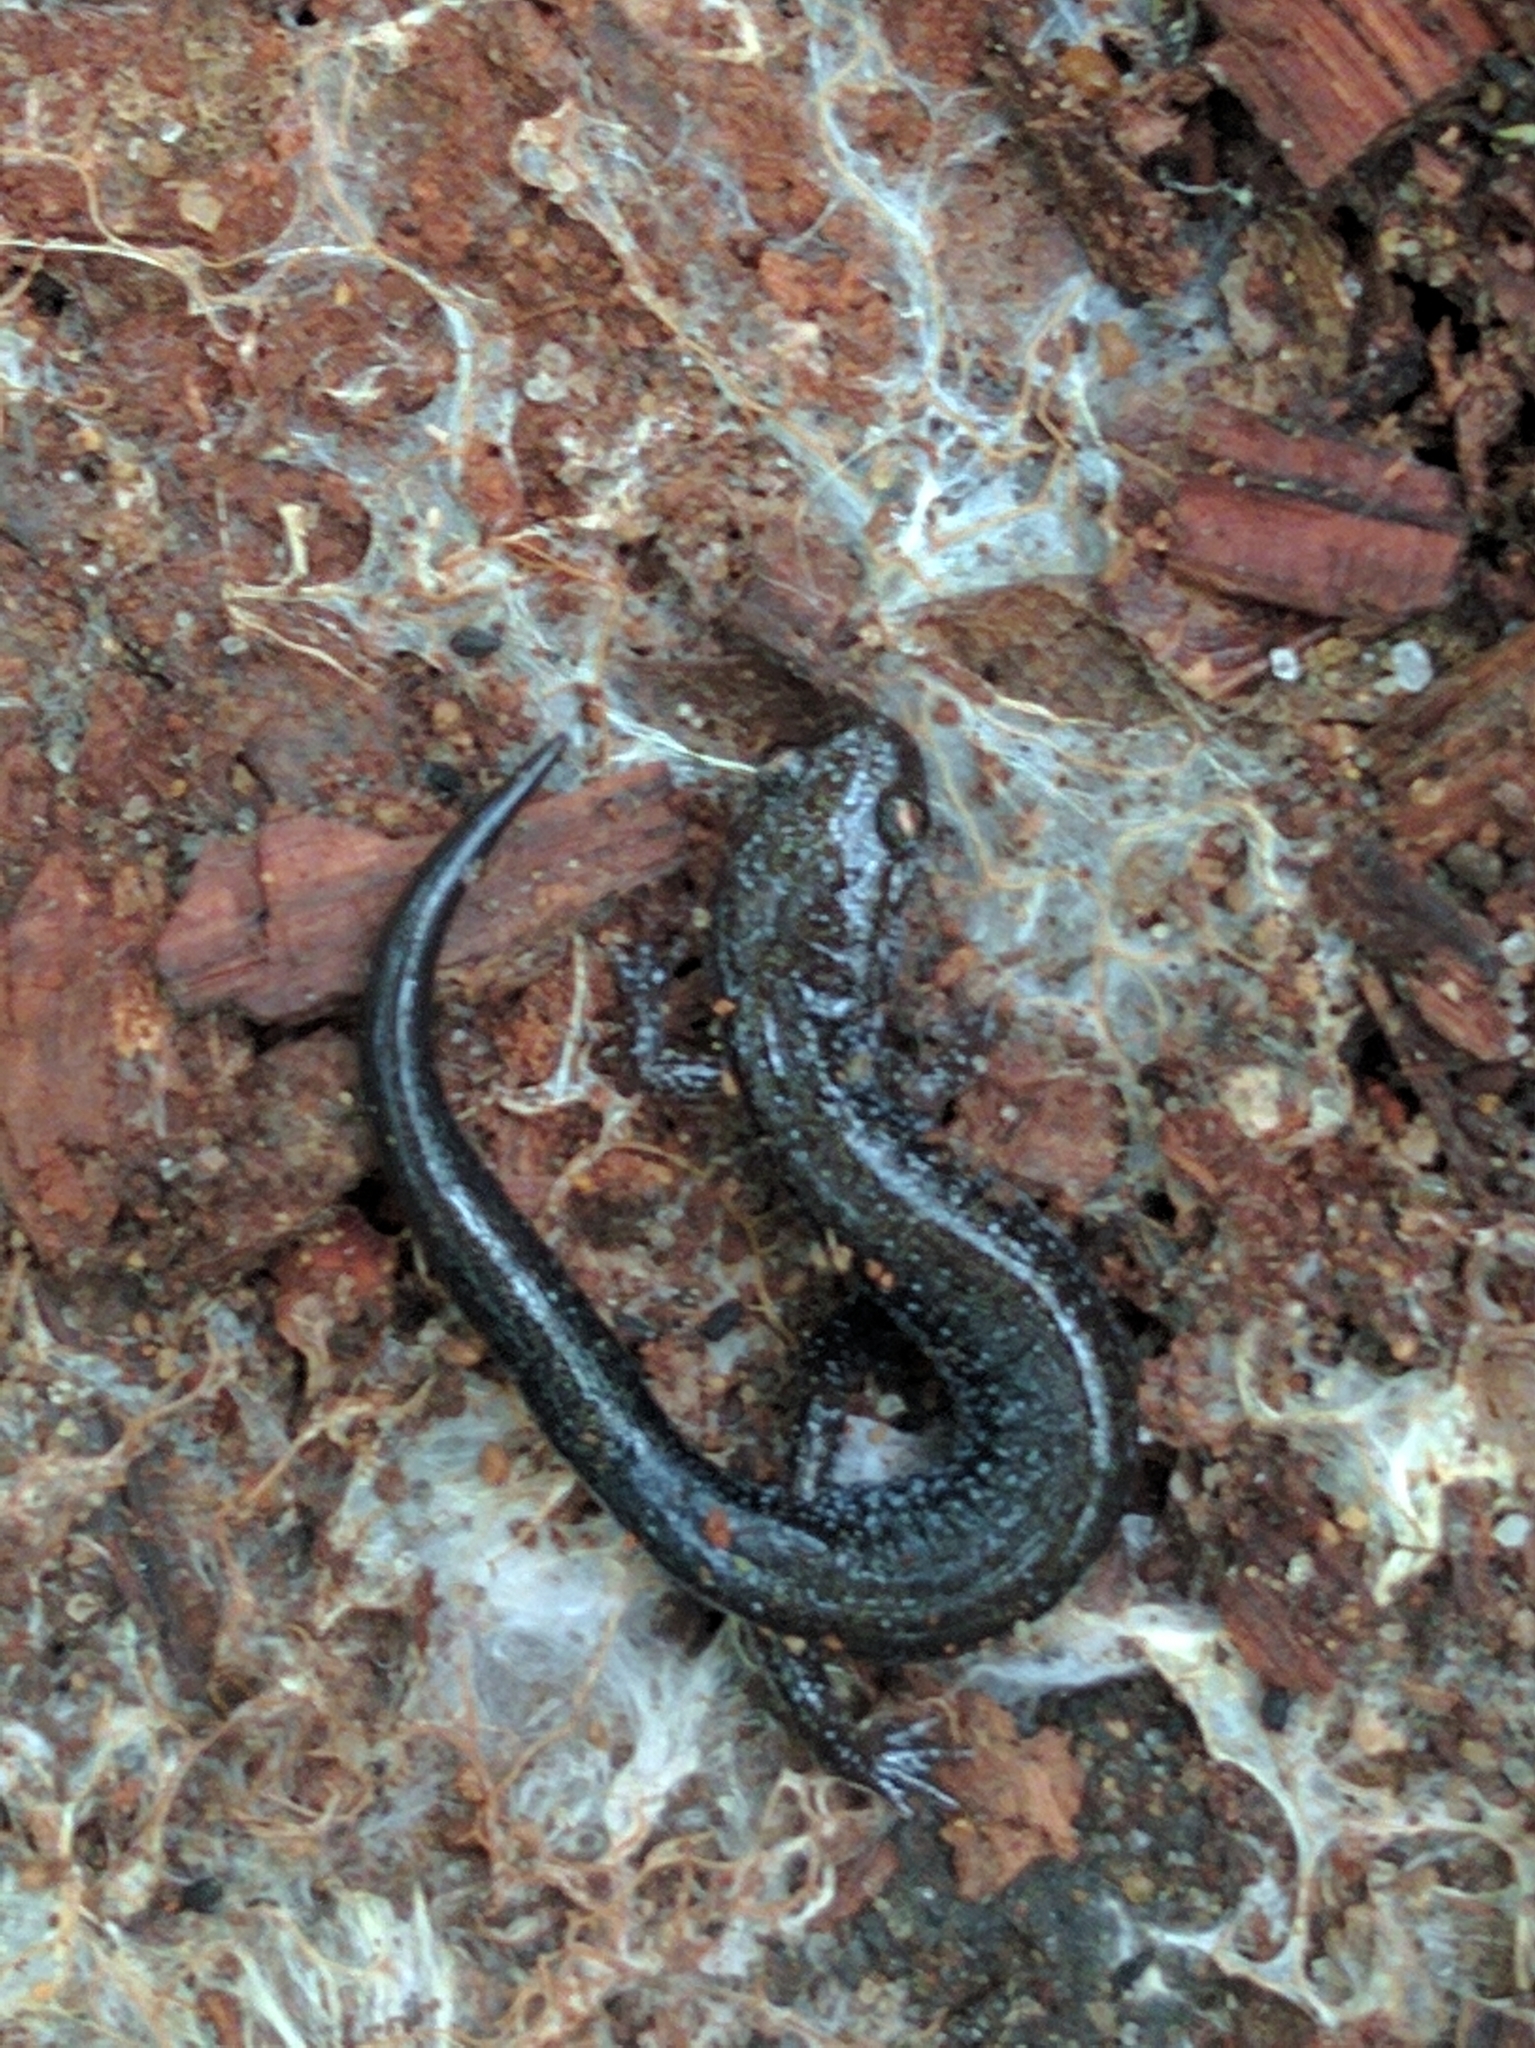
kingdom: Animalia
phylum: Chordata
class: Amphibia
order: Caudata
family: Plethodontidae
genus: Plethodon
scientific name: Plethodon cinereus
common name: Redback salamander
